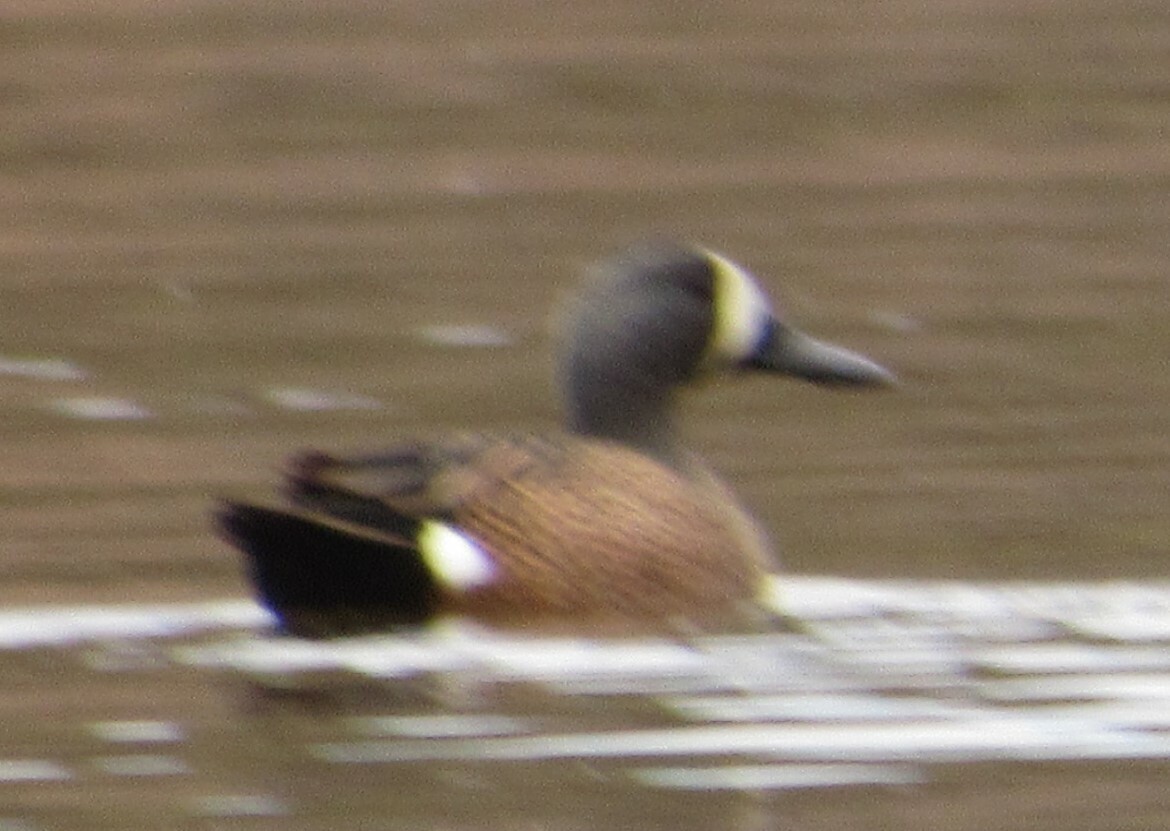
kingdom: Animalia
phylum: Chordata
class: Aves
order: Anseriformes
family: Anatidae
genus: Spatula
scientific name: Spatula discors
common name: Blue-winged teal
